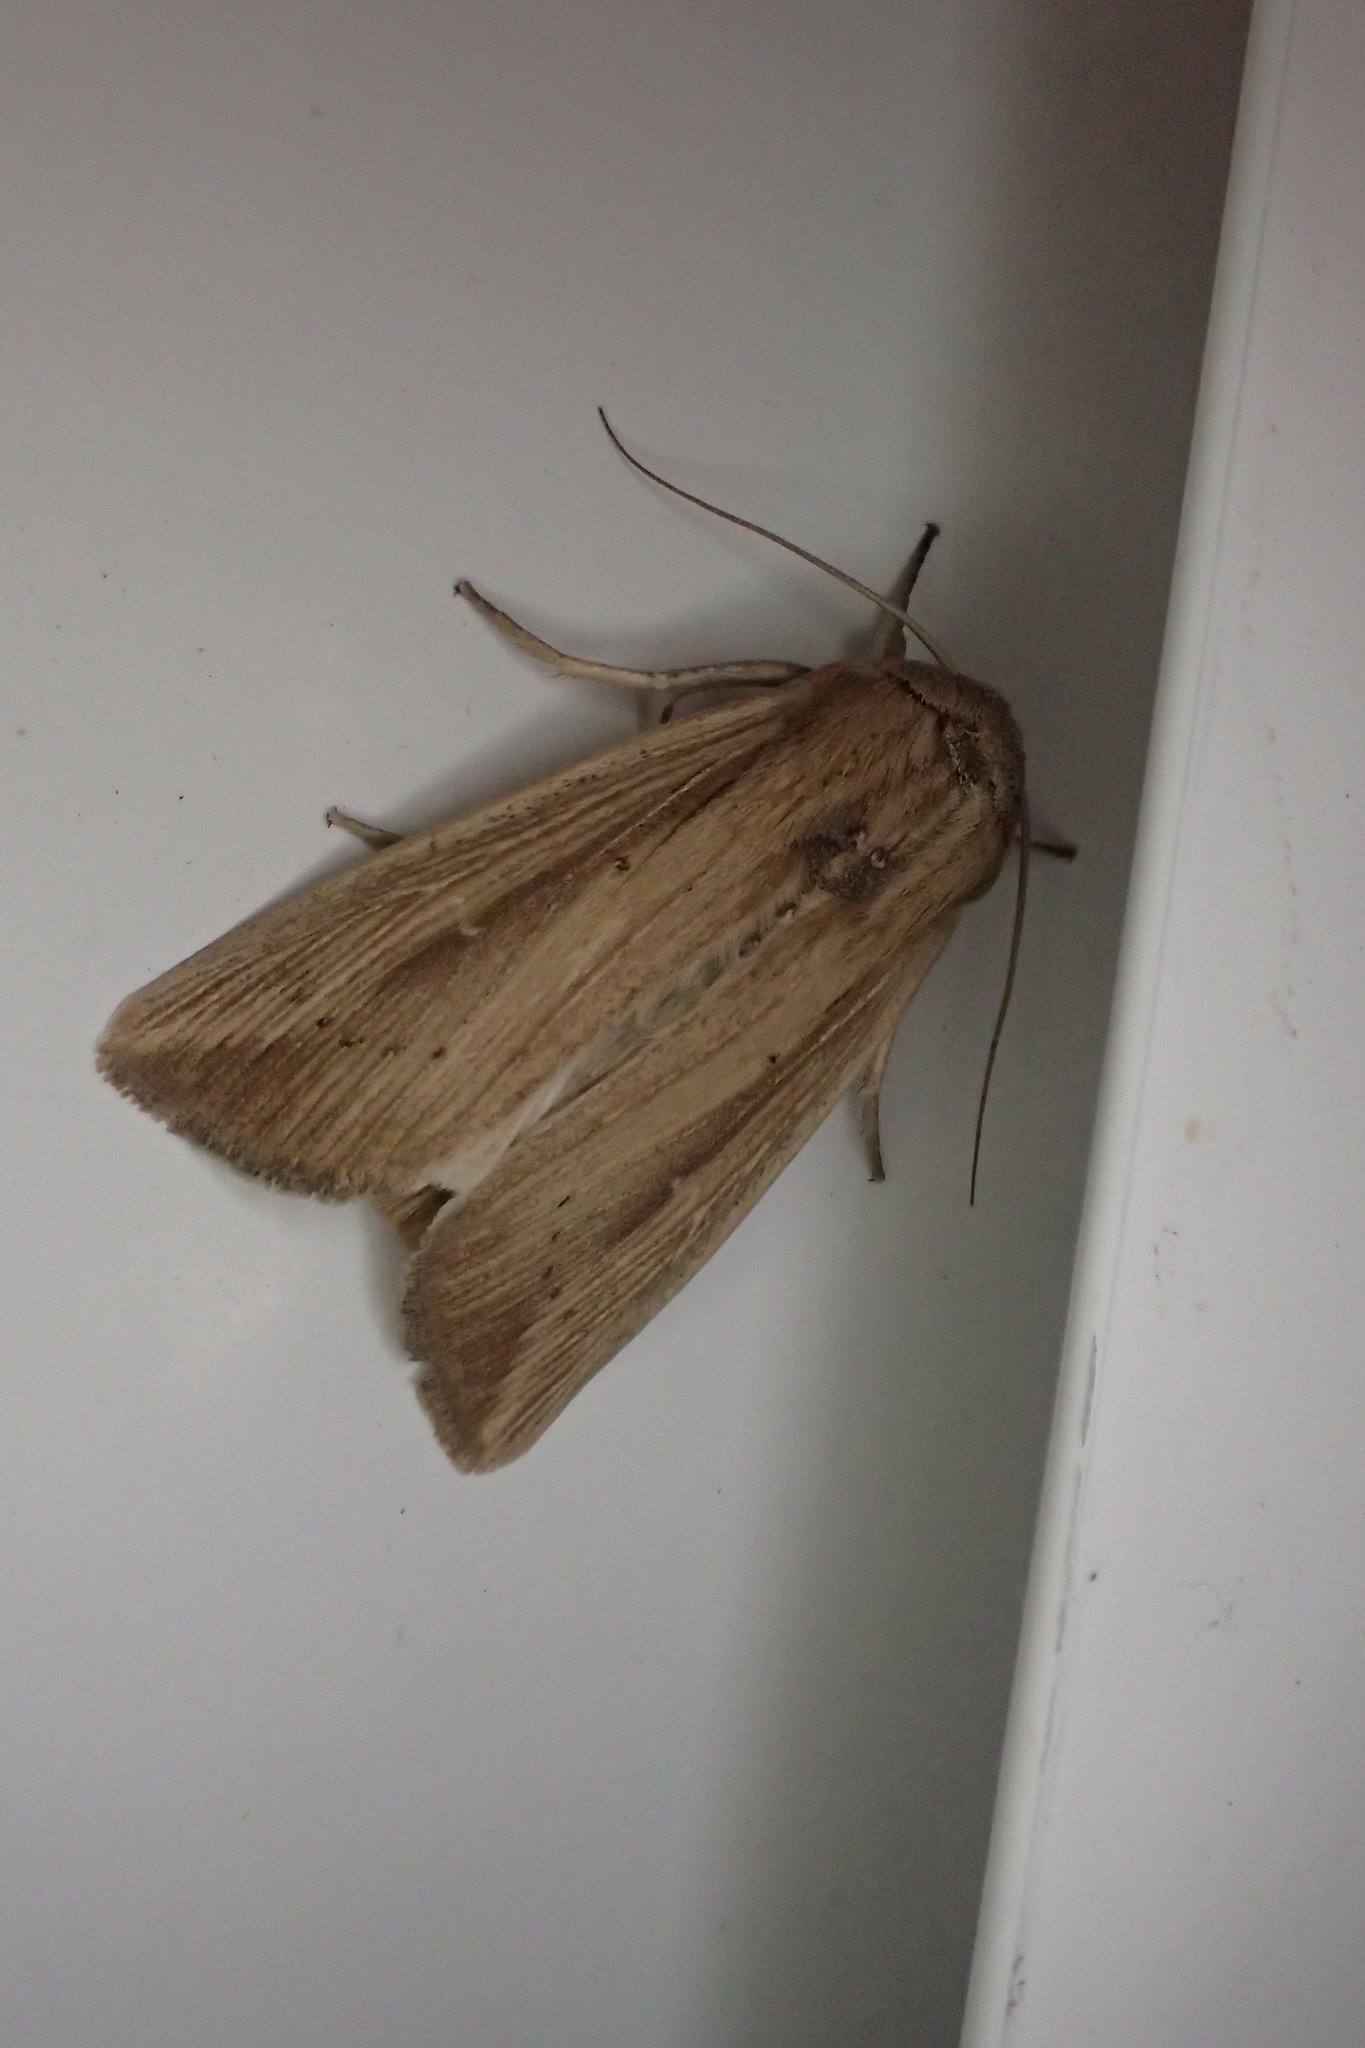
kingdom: Animalia
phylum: Arthropoda
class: Insecta
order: Lepidoptera
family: Noctuidae
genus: Leucania
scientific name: Leucania loreyi
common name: The cosmopolitan
